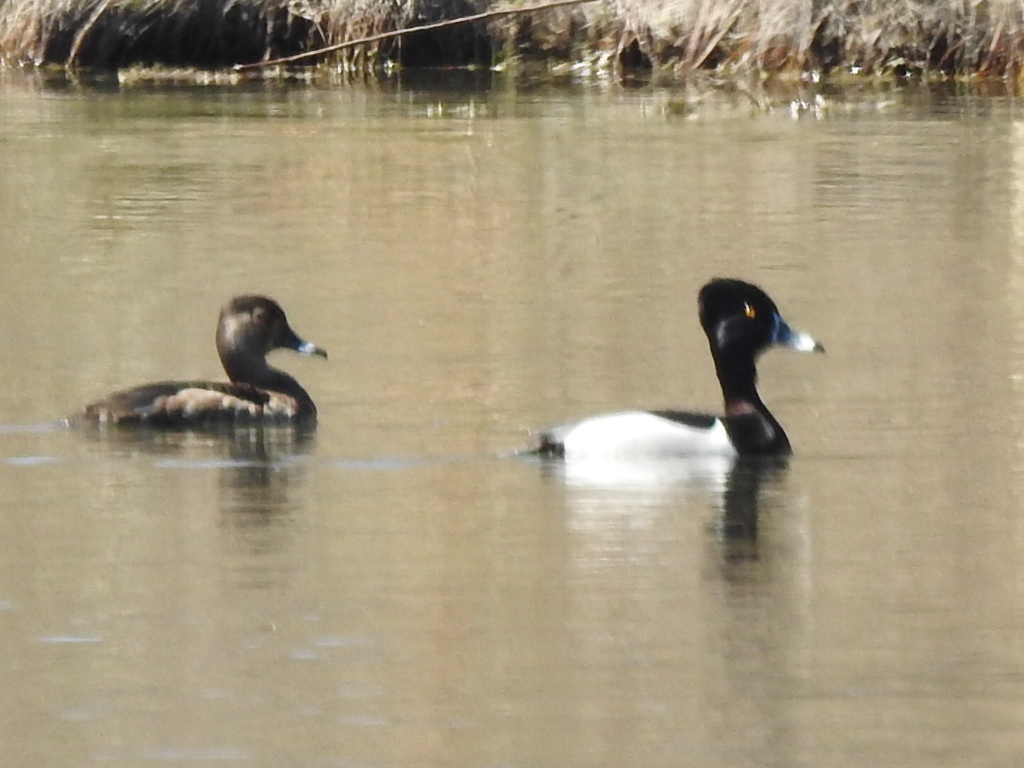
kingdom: Animalia
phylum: Chordata
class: Aves
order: Anseriformes
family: Anatidae
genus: Aythya
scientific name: Aythya collaris
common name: Ring-necked duck
